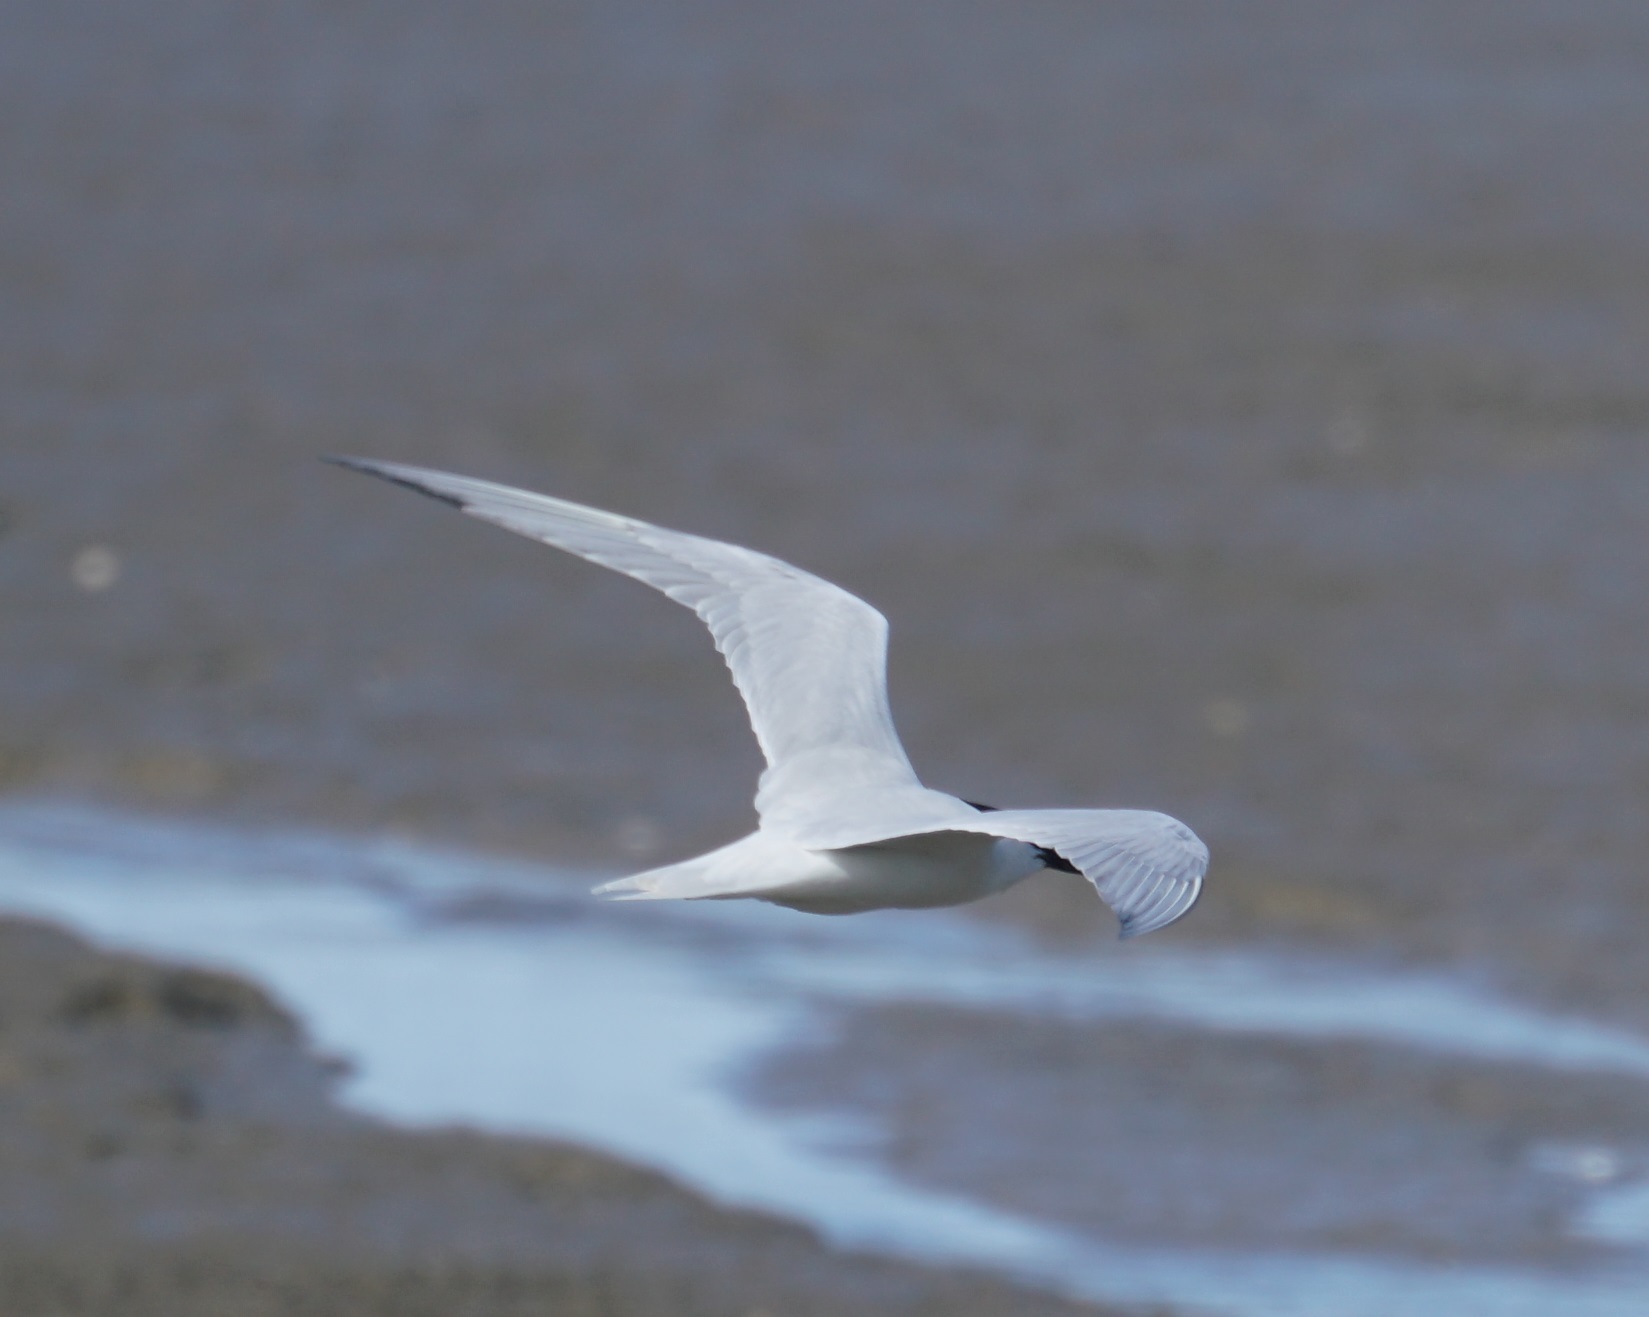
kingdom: Animalia
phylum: Chordata
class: Aves
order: Charadriiformes
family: Laridae
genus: Gelochelidon
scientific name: Gelochelidon macrotarsa
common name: Australian tern
